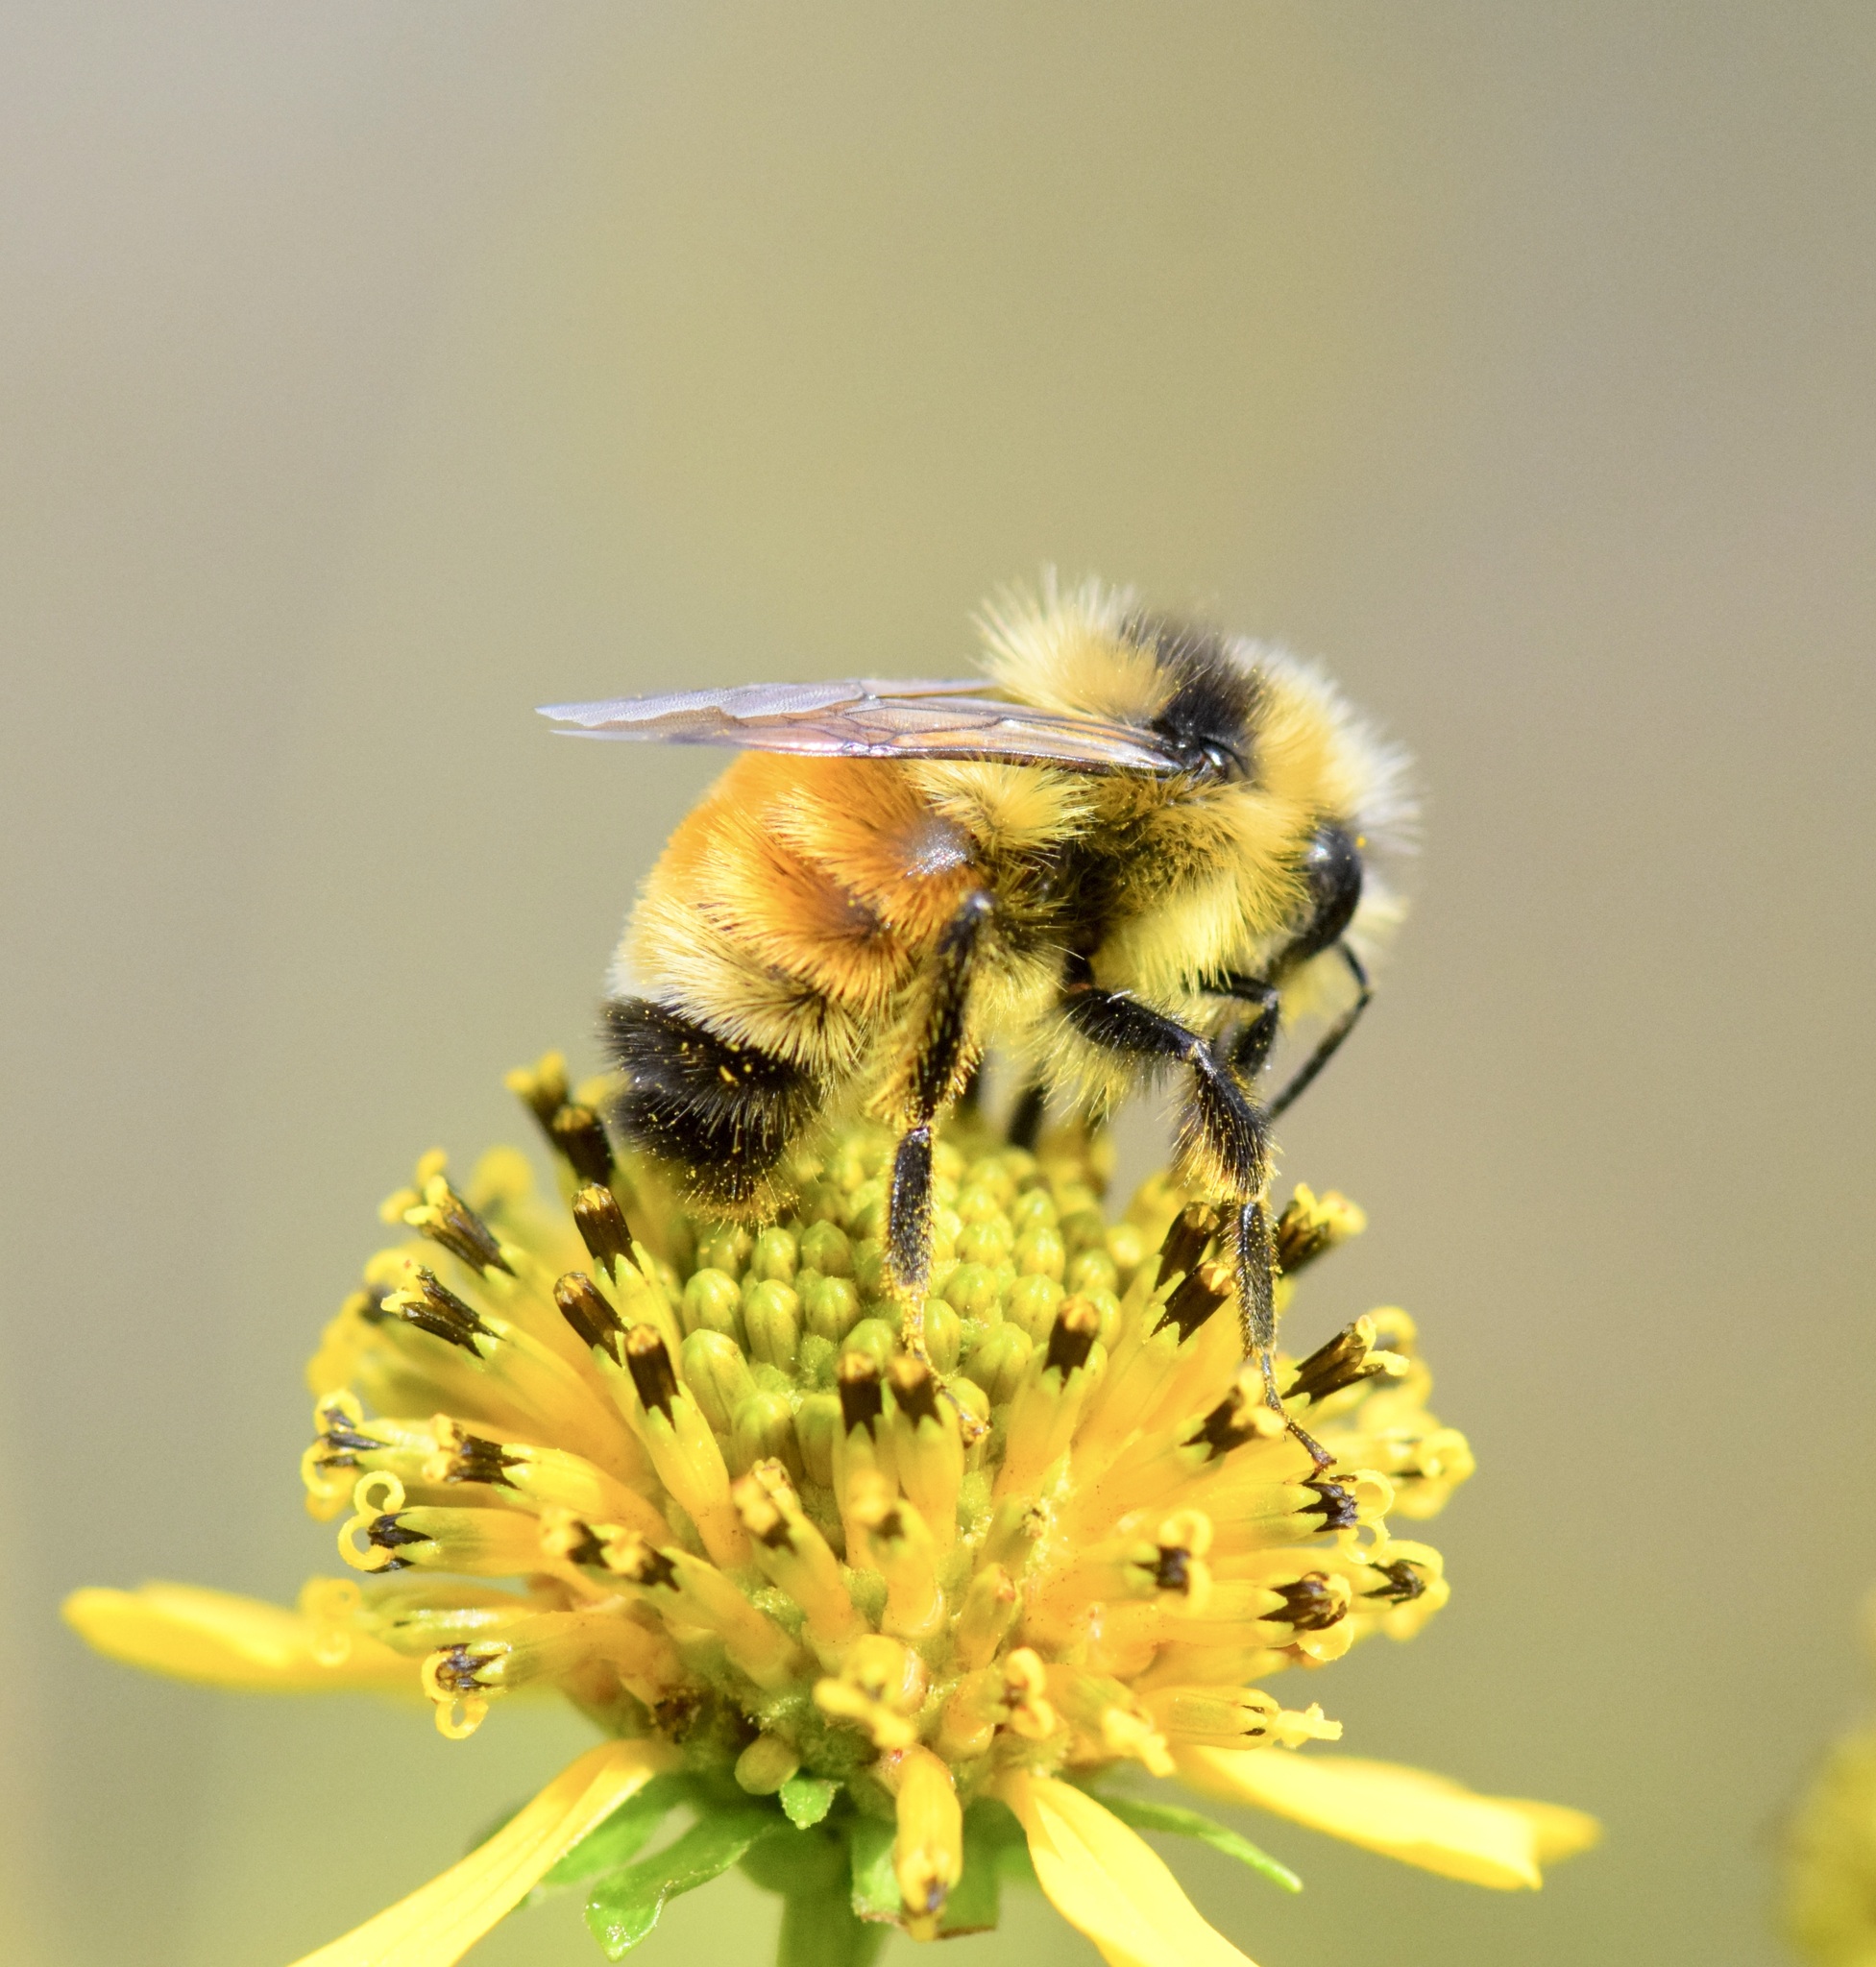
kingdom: Animalia
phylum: Arthropoda
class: Insecta
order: Hymenoptera
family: Apidae
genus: Bombus
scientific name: Bombus ternarius
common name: Tri-colored bumble bee
